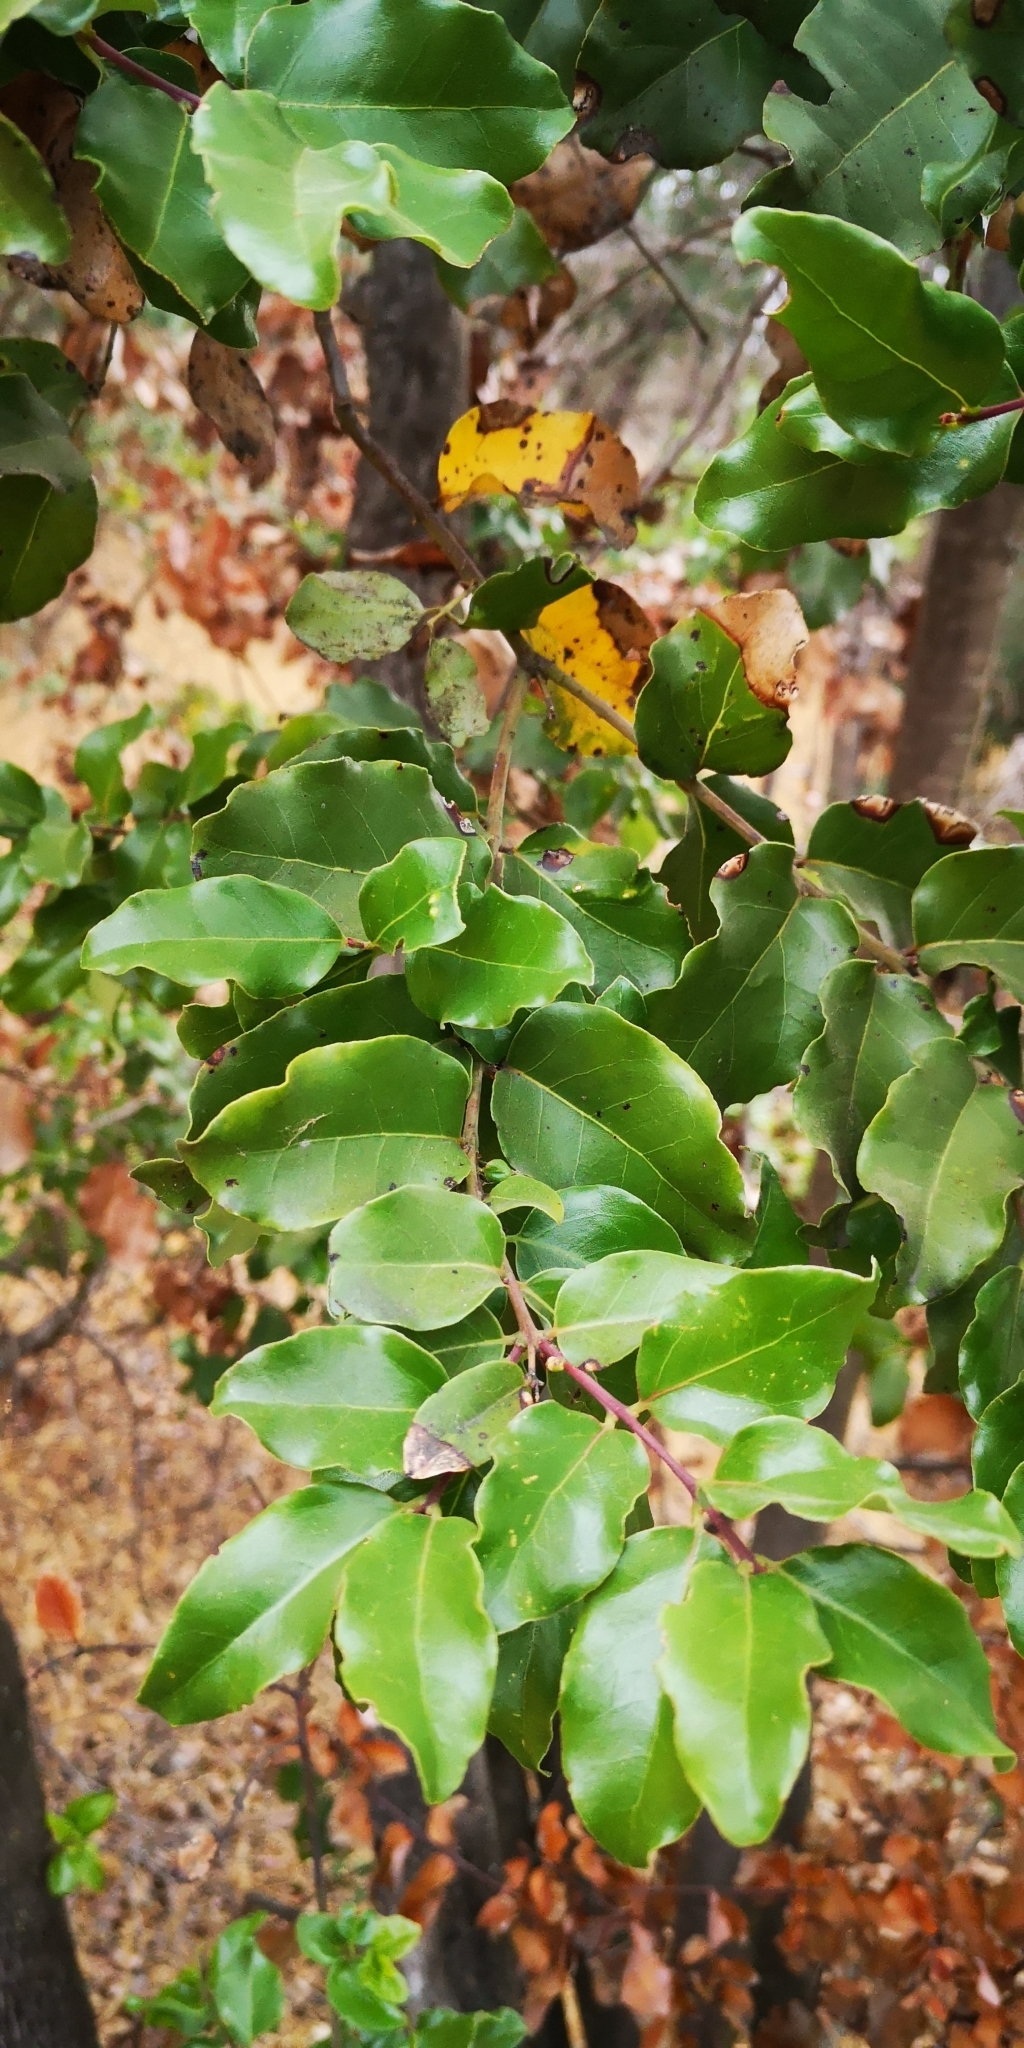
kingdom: Plantae
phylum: Tracheophyta
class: Magnoliopsida
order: Laurales
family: Lauraceae
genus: Cryptocarya
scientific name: Cryptocarya alba
